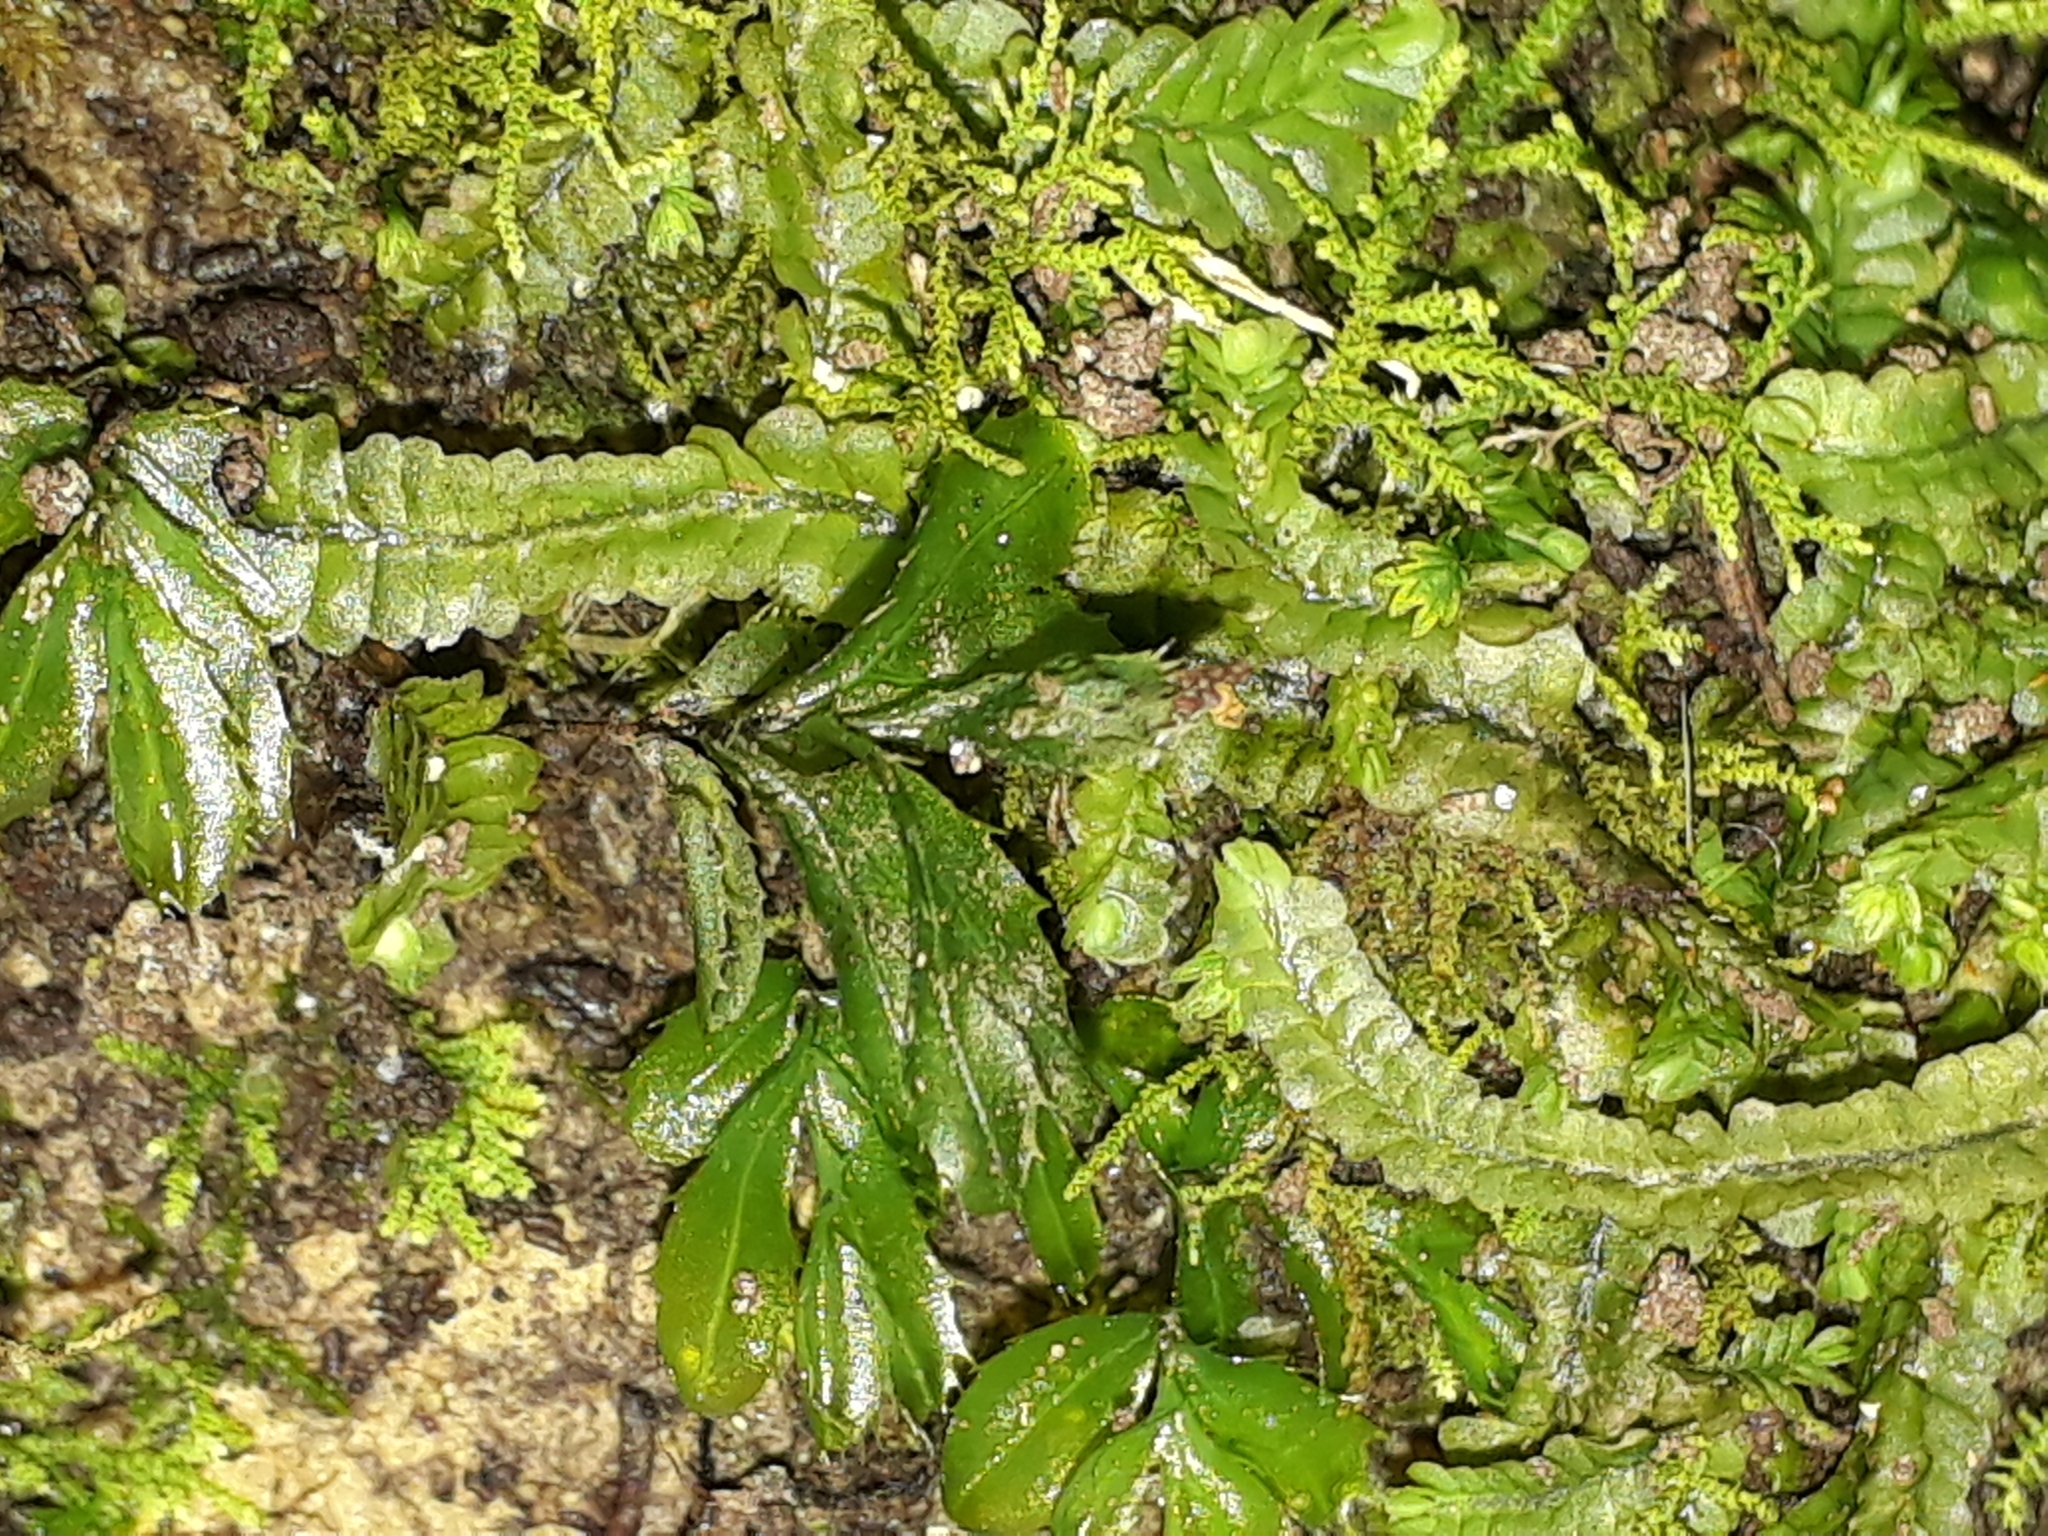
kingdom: Plantae
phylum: Tracheophyta
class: Polypodiopsida
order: Hymenophyllales
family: Hymenophyllaceae
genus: Hymenophyllum
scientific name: Hymenophyllum minimum
